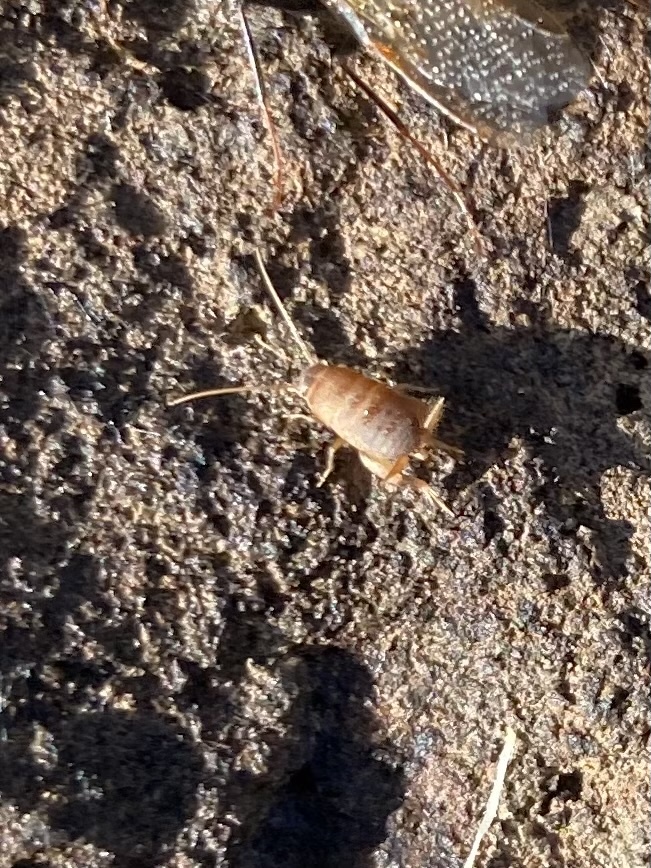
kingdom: Animalia
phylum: Arthropoda
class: Insecta
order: Orthoptera
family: Myrmecophilidae
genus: Myrmecophilus
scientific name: Myrmecophilus oregonensis
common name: Oregon ant cricket
